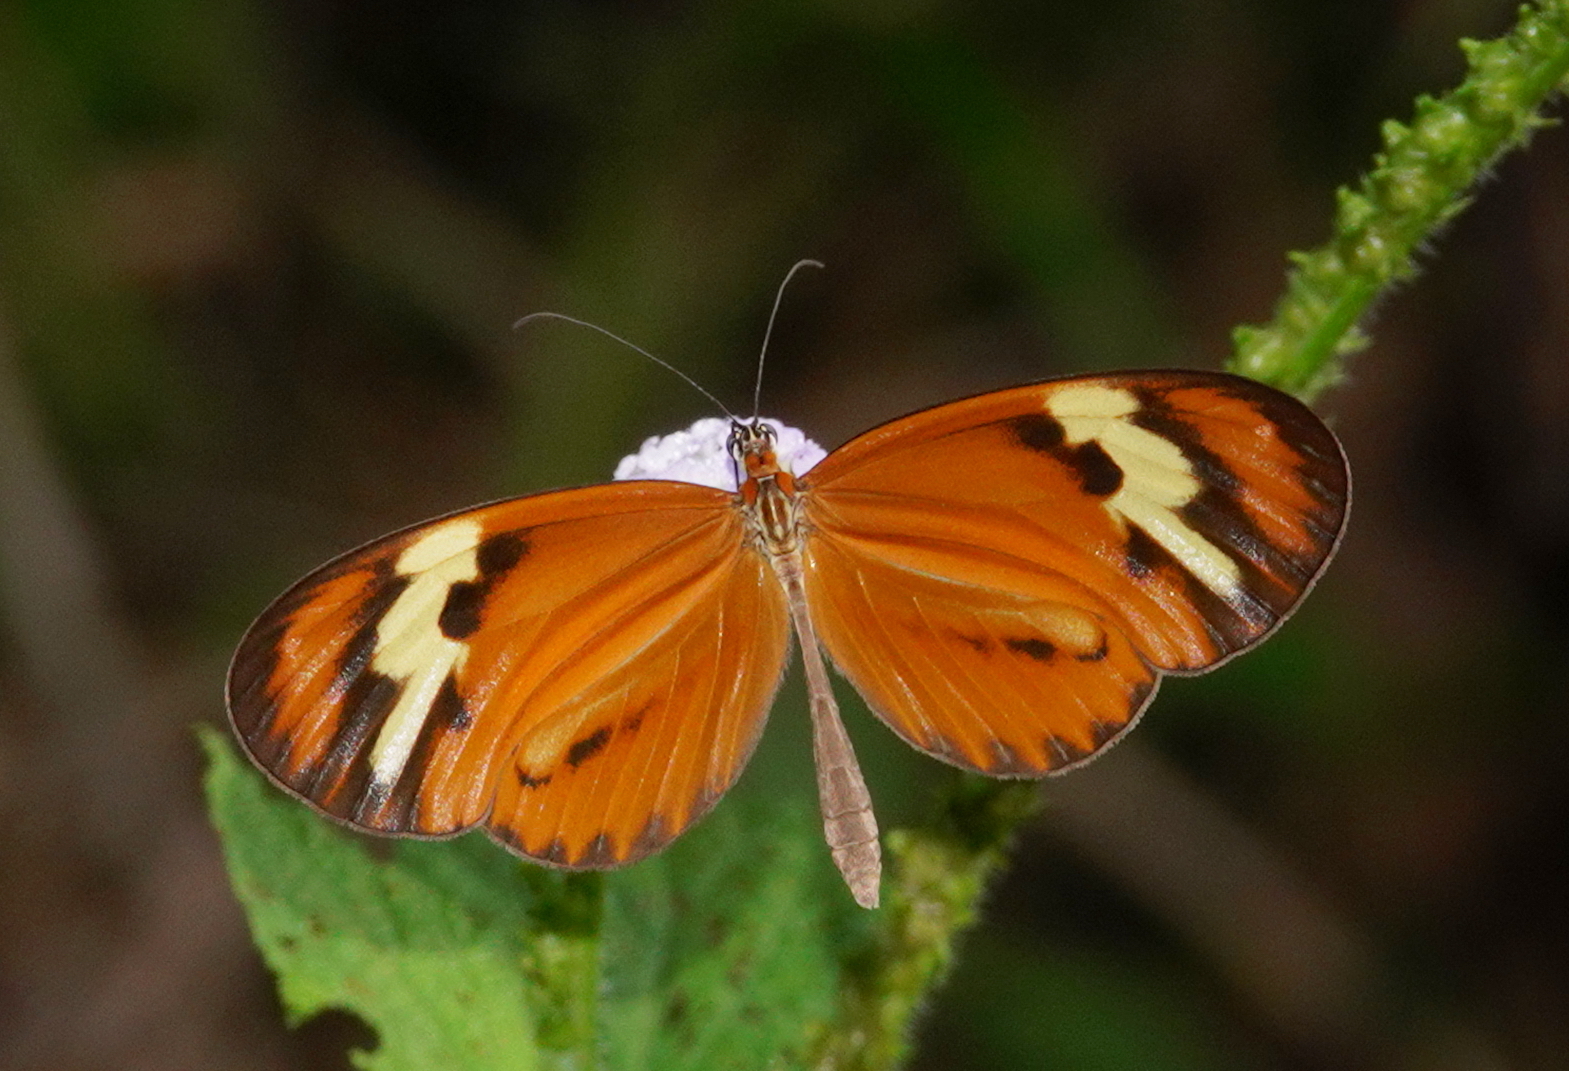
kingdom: Animalia
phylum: Arthropoda
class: Insecta
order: Lepidoptera
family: Nymphalidae
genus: Sais
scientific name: Sais rosalia
